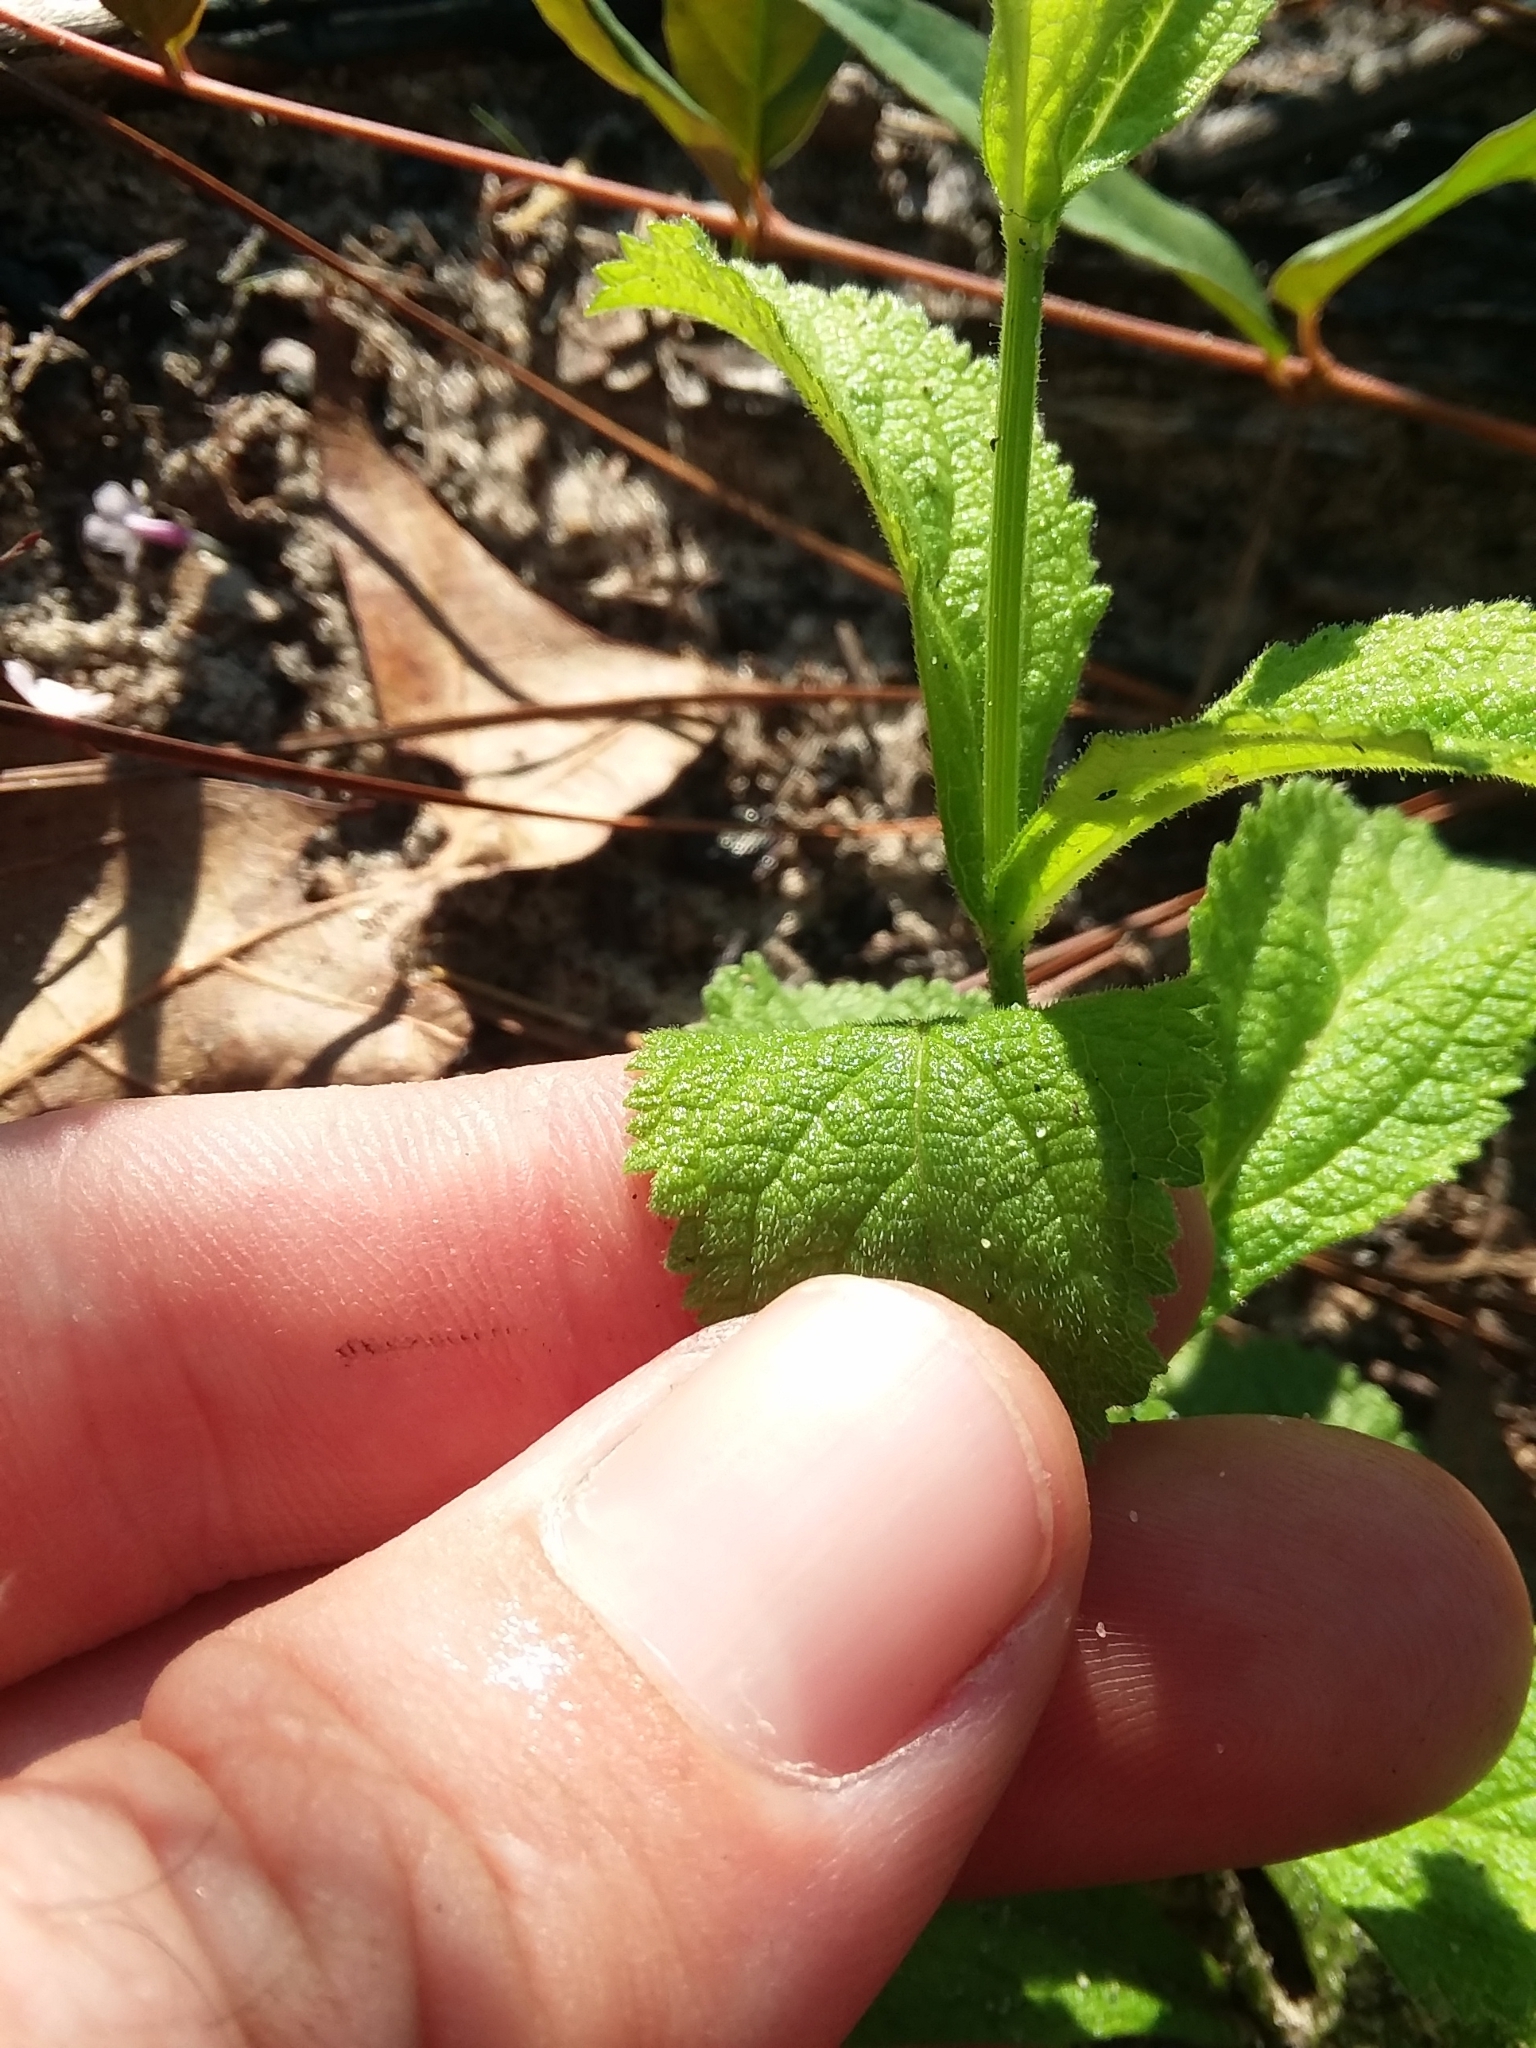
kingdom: Plantae
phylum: Tracheophyta
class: Magnoliopsida
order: Lamiales
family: Verbenaceae
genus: Verbena
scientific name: Verbena carnea
